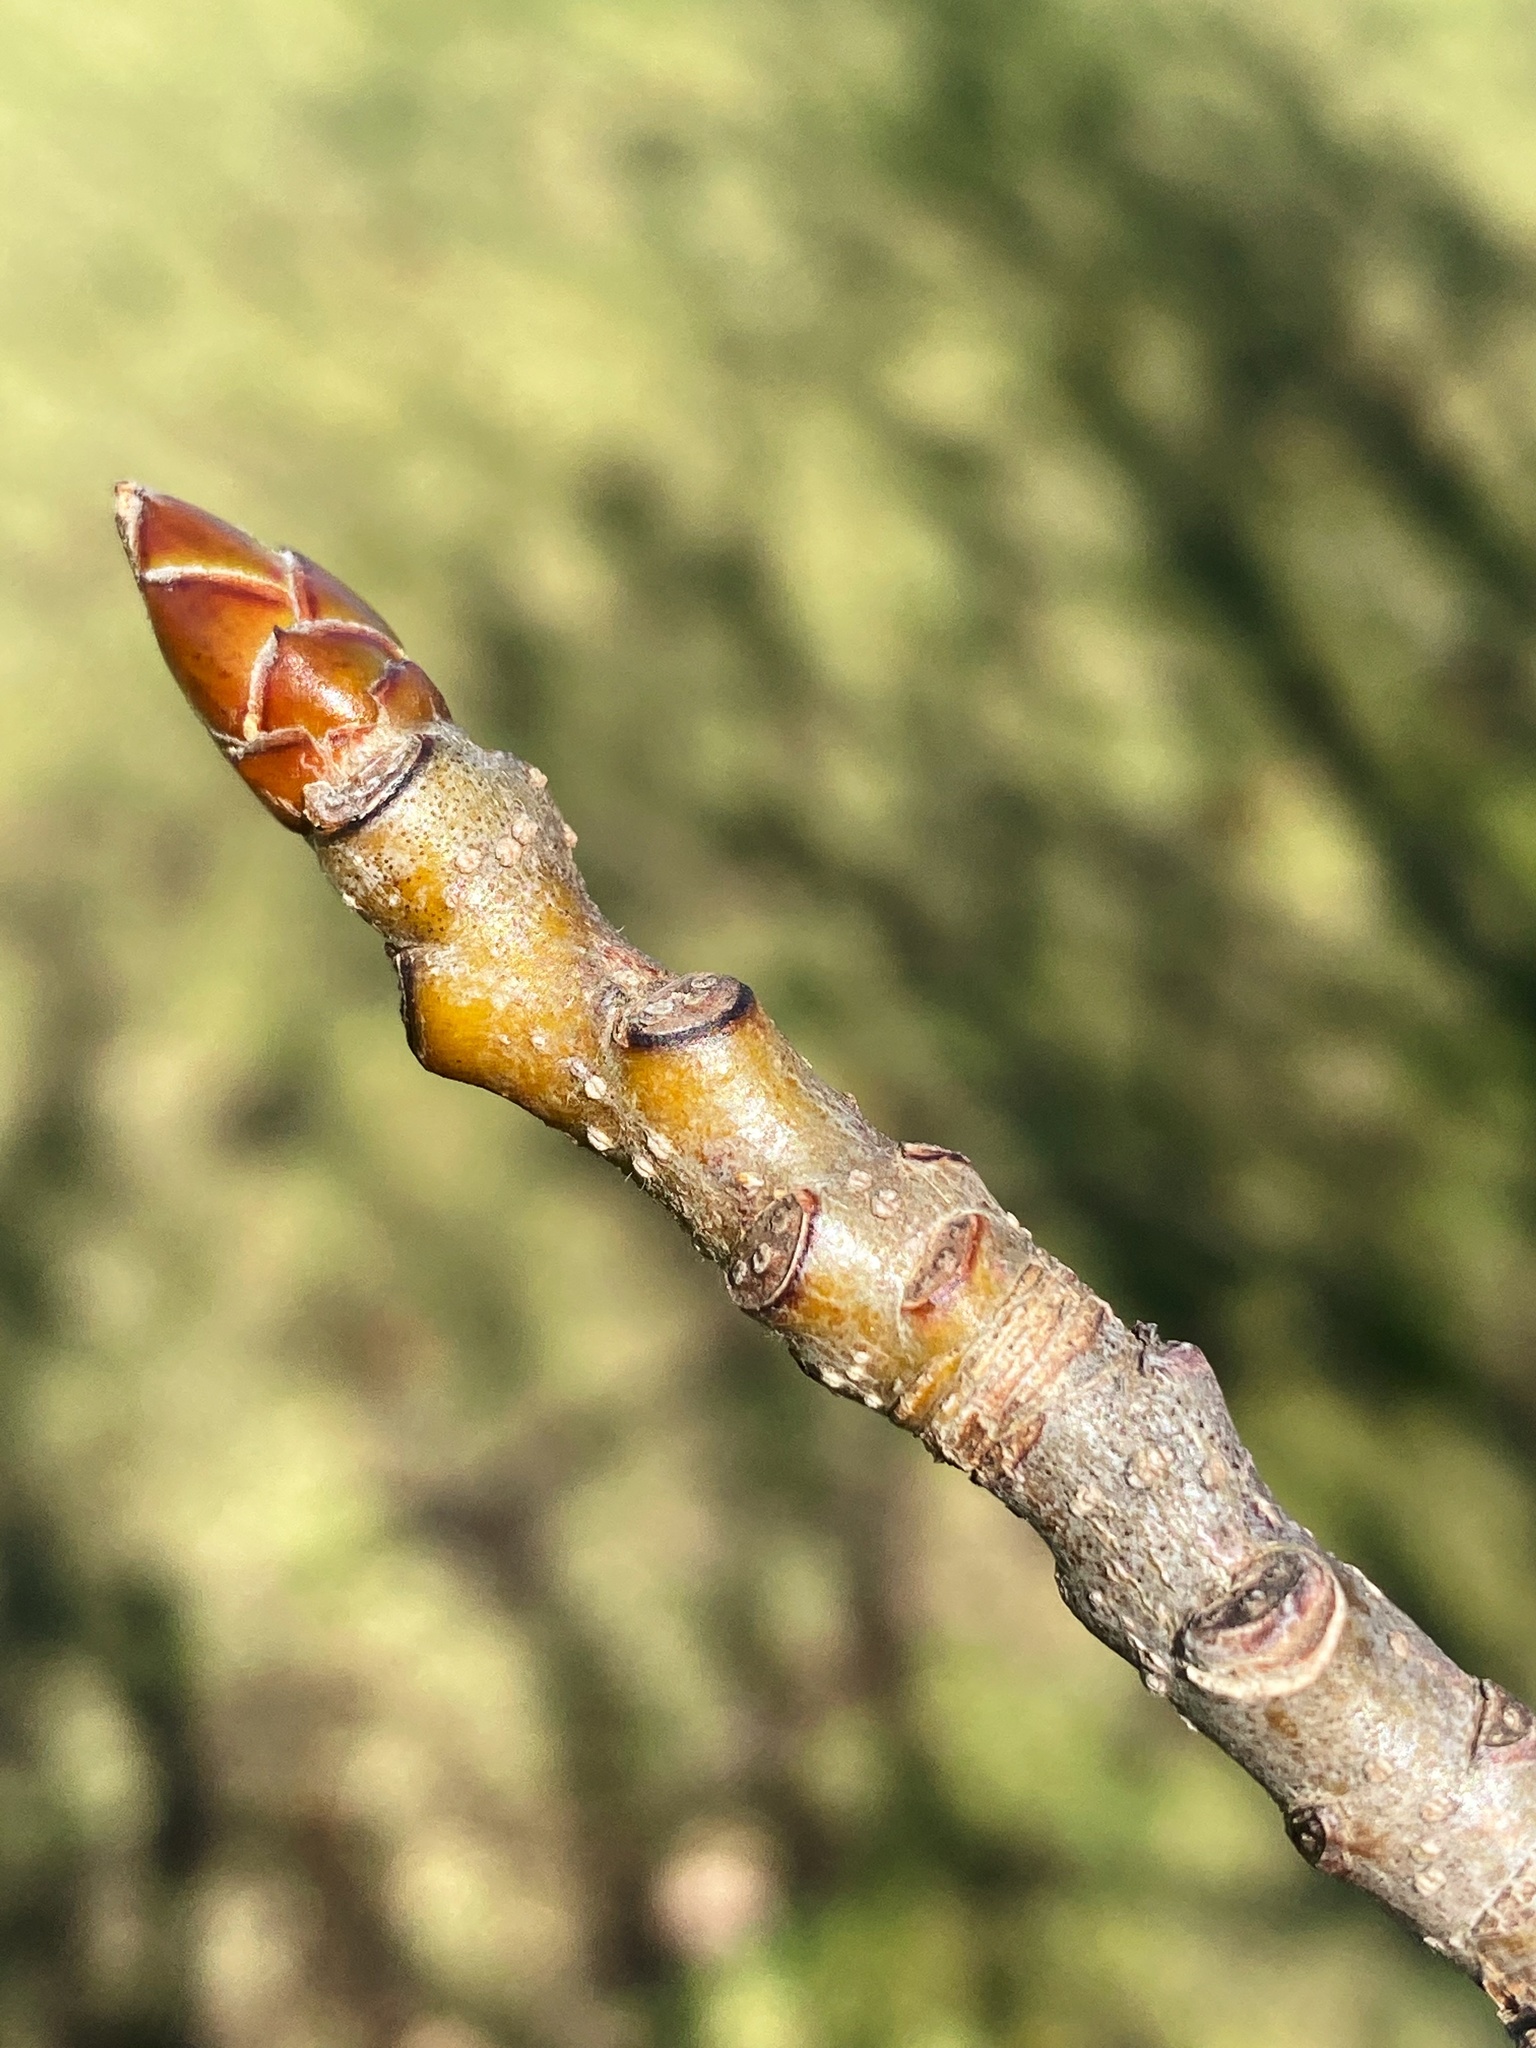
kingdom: Plantae
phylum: Tracheophyta
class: Magnoliopsida
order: Saxifragales
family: Altingiaceae
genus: Liquidambar
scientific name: Liquidambar styraciflua
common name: Sweet gum
